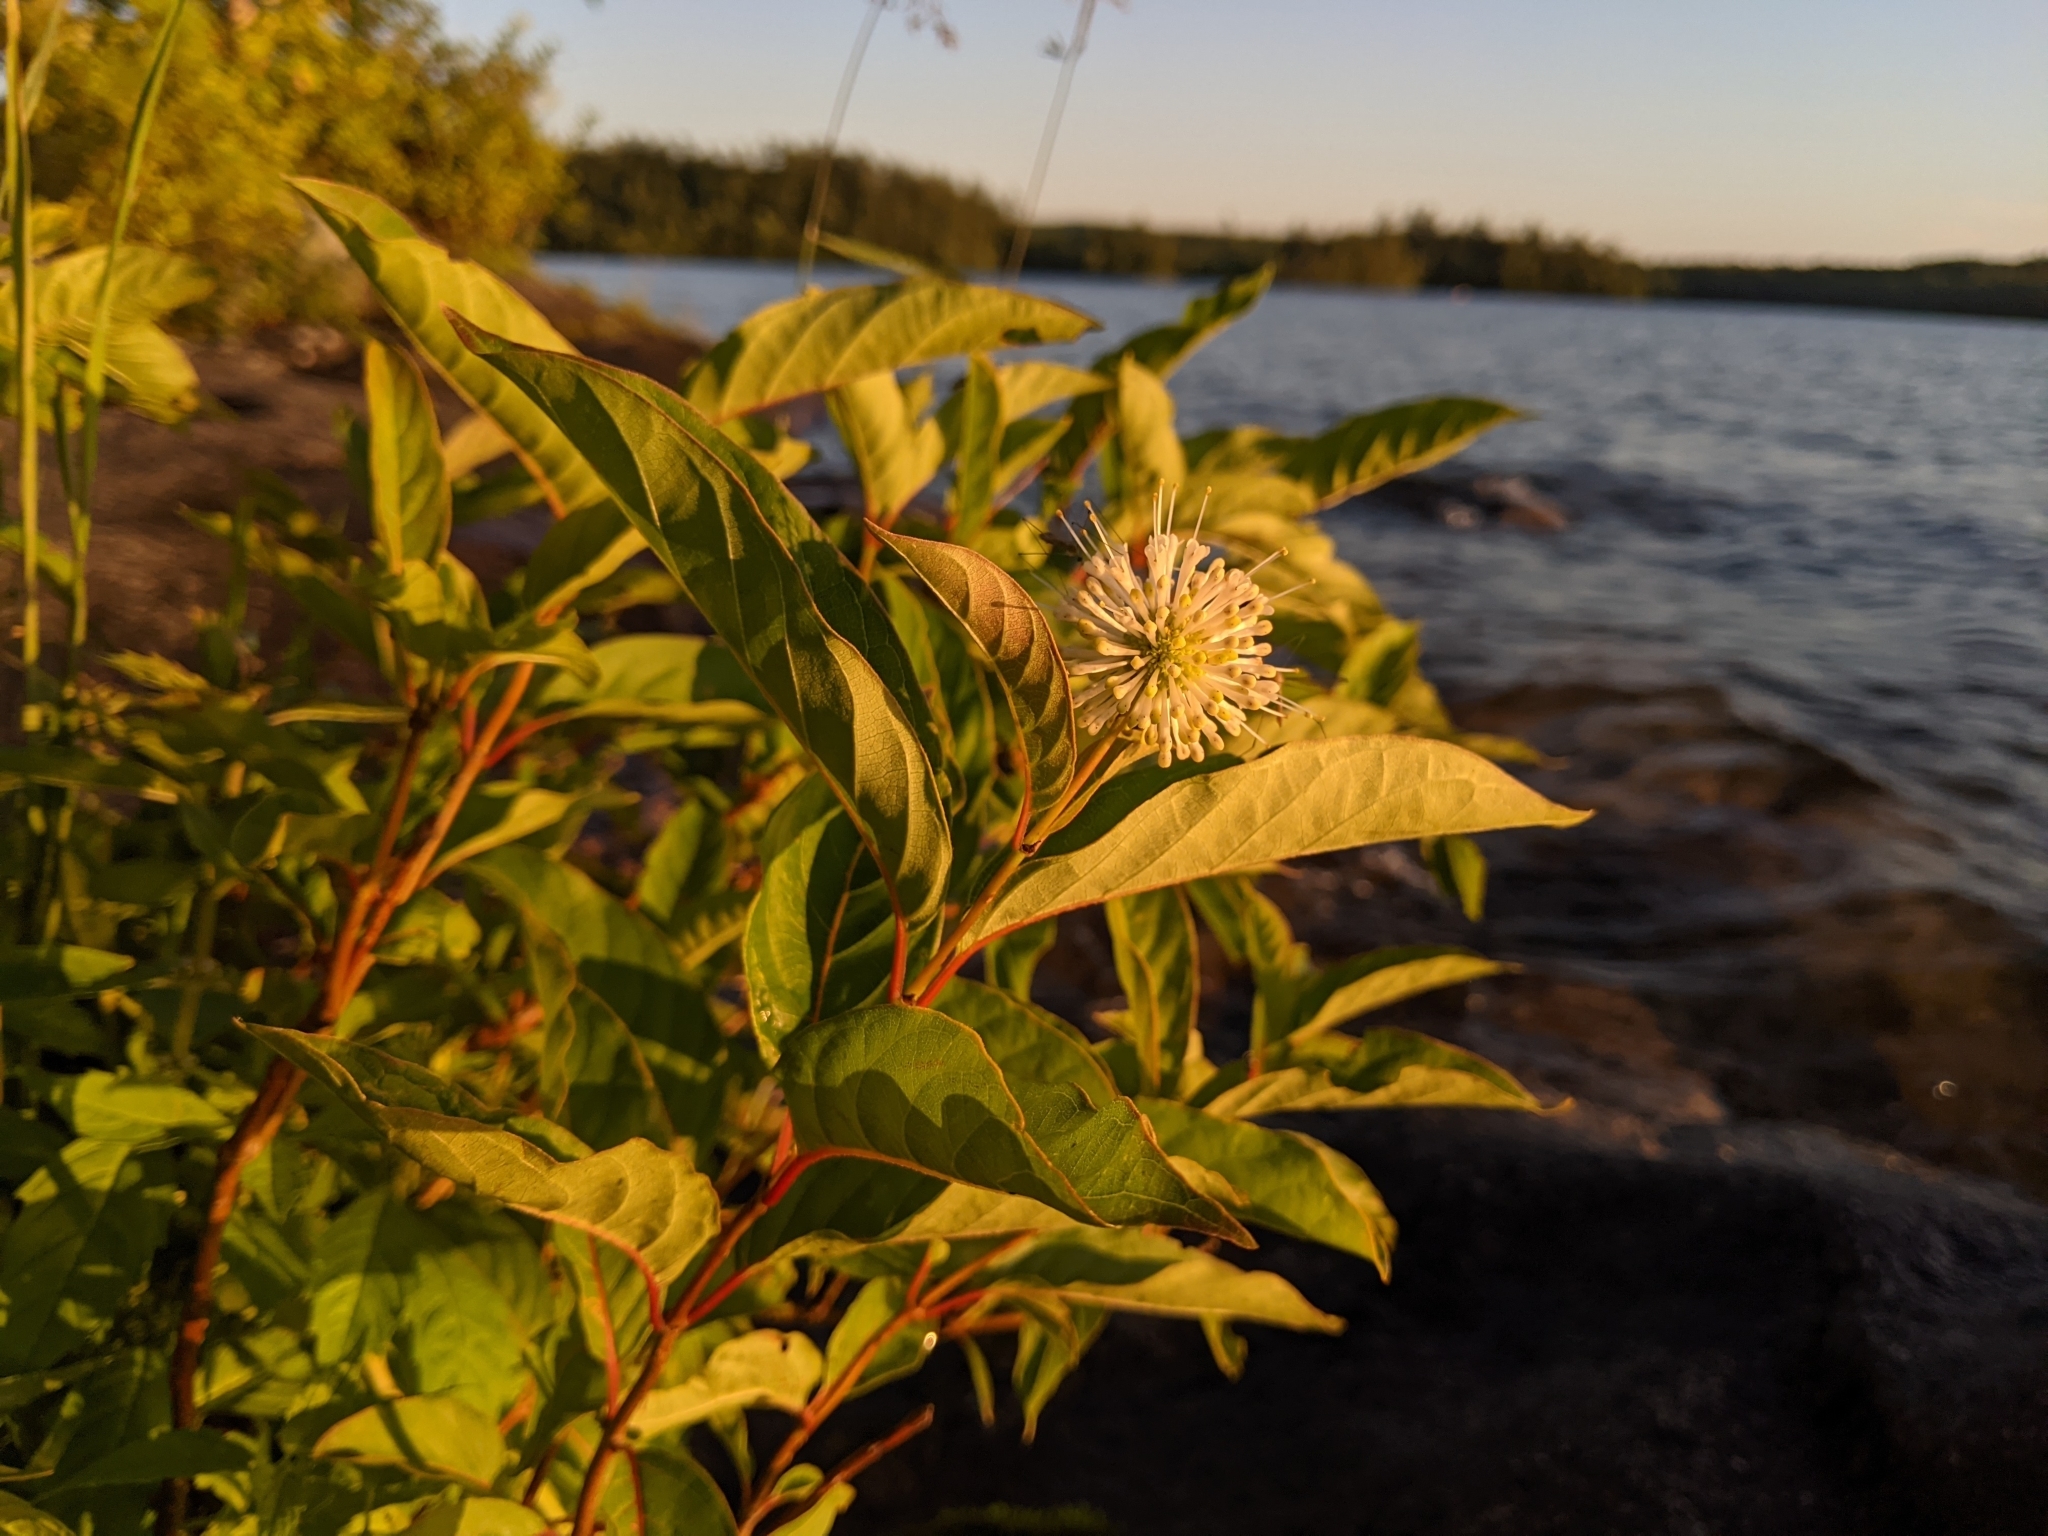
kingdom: Plantae
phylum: Tracheophyta
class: Magnoliopsida
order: Gentianales
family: Rubiaceae
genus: Cephalanthus
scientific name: Cephalanthus occidentalis
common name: Button-willow
